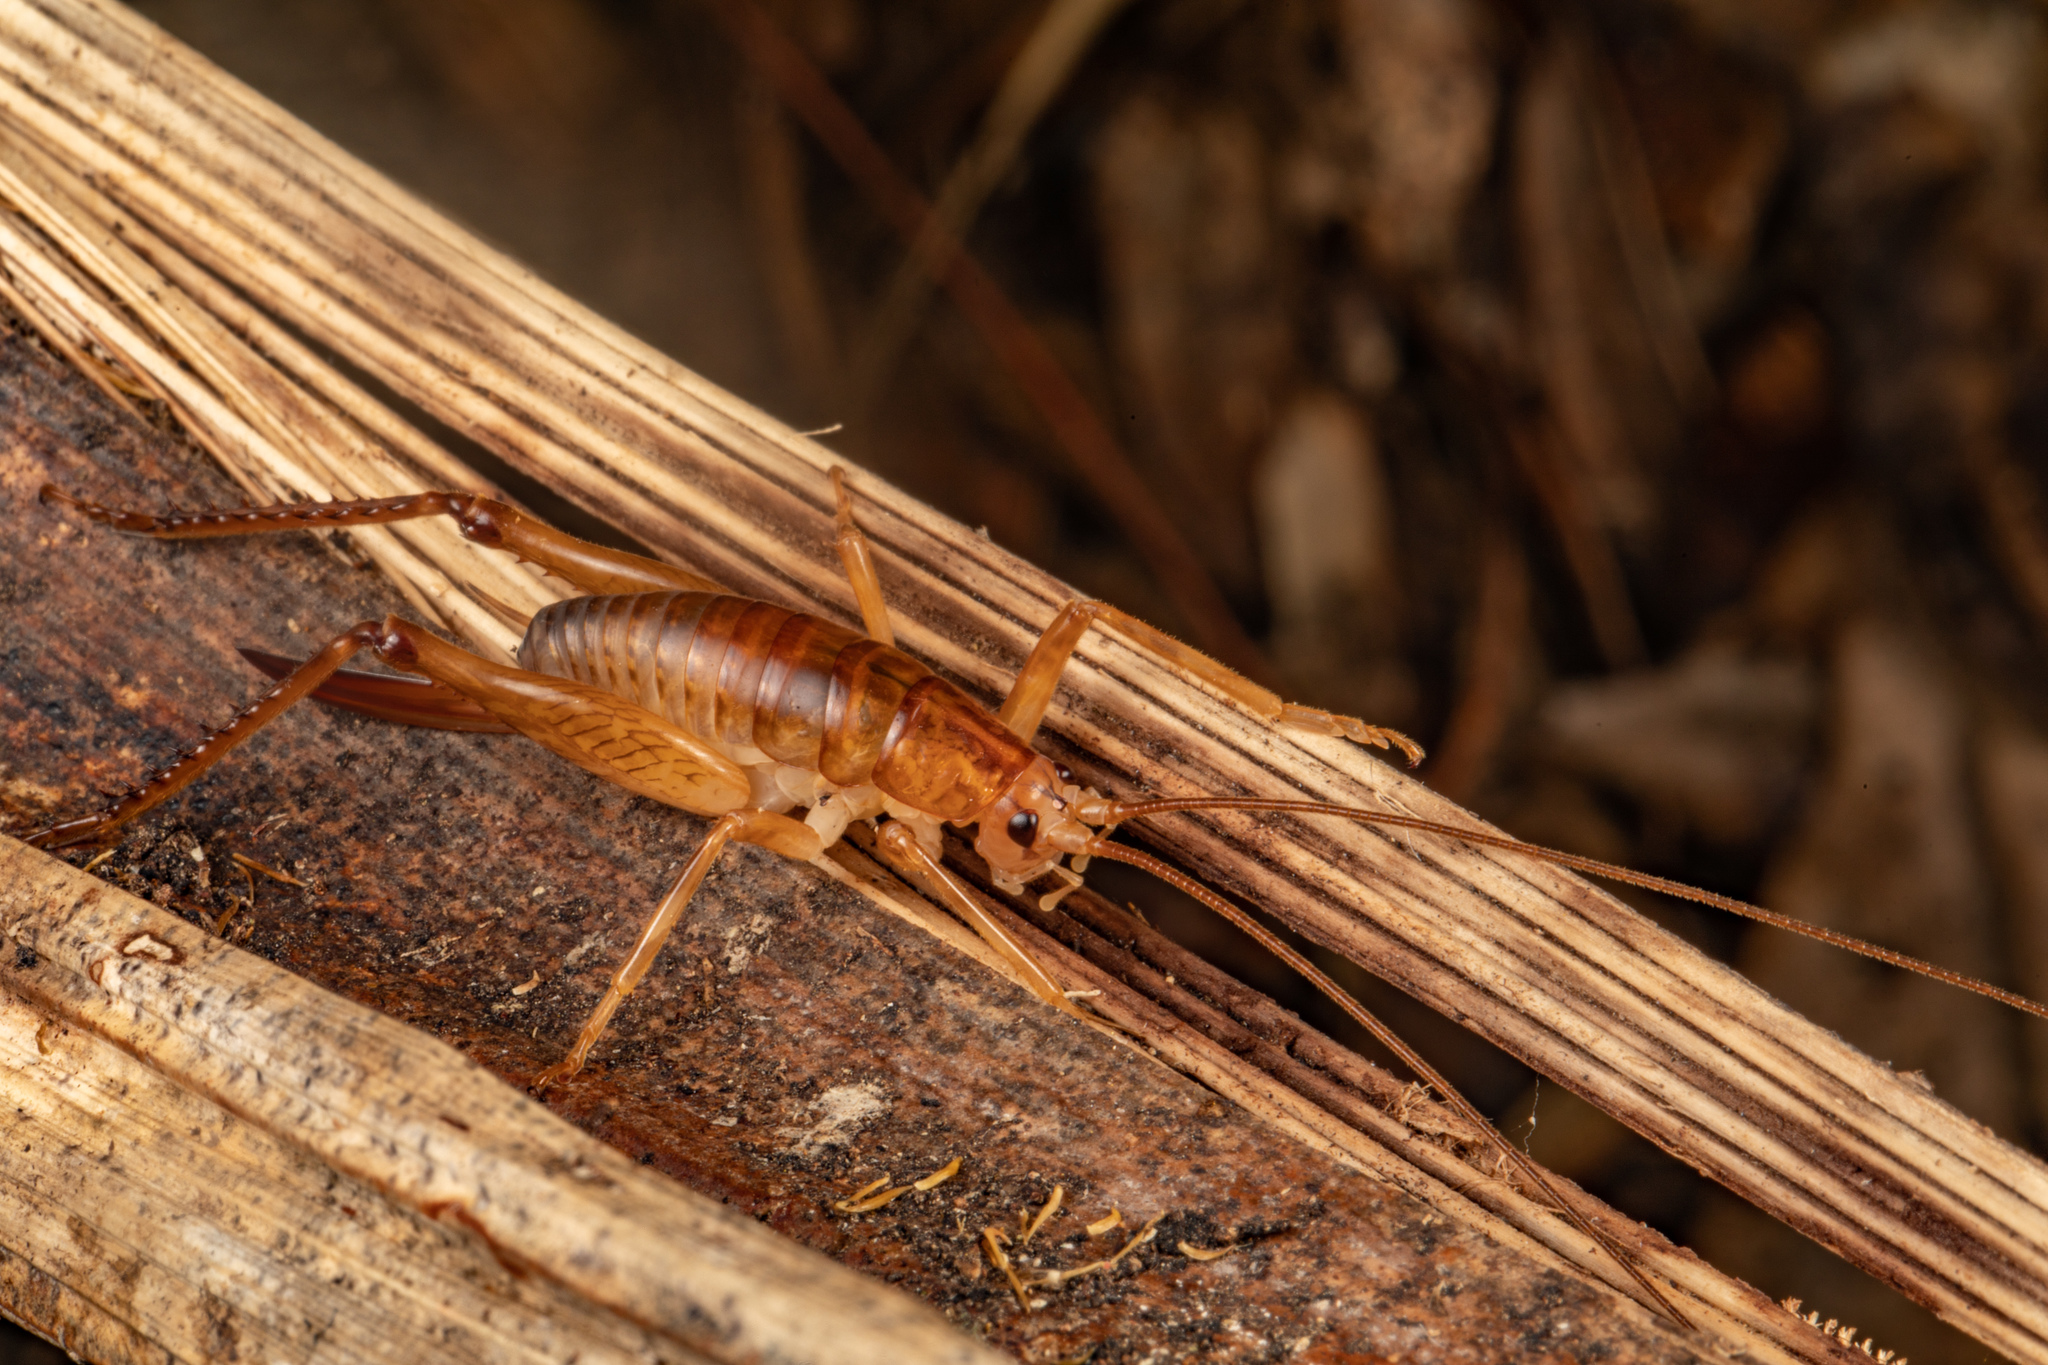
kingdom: Animalia
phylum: Arthropoda
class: Insecta
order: Orthoptera
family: Rhaphidophoridae
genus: Talitropsis
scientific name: Talitropsis sedilloti
